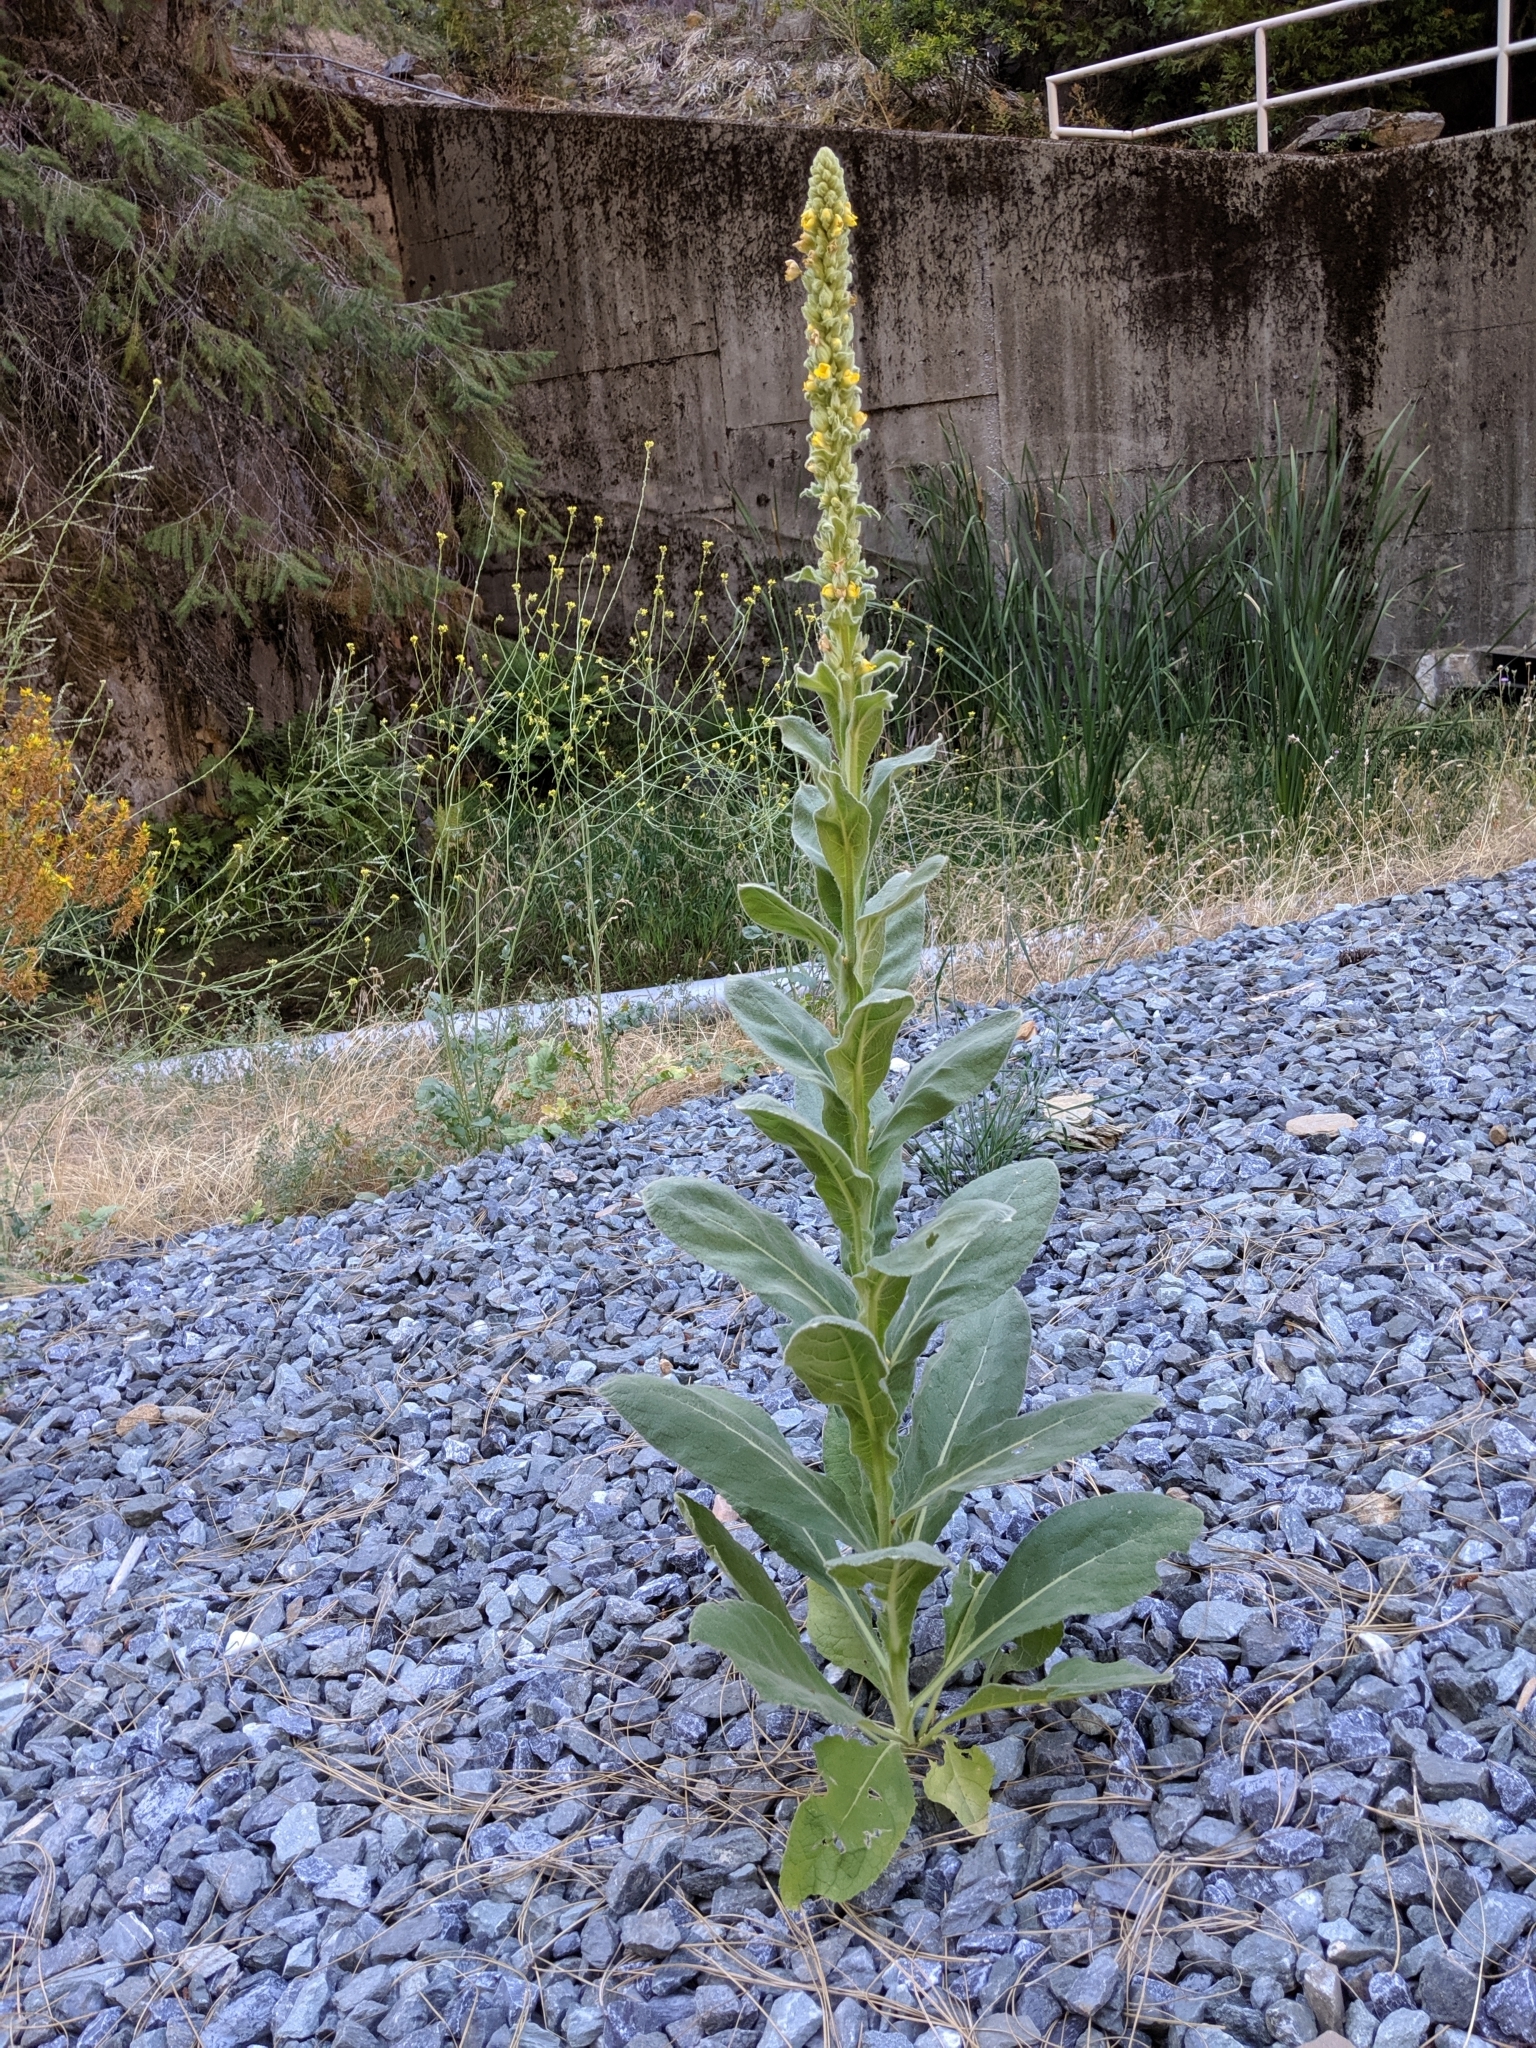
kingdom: Plantae
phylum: Tracheophyta
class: Magnoliopsida
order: Lamiales
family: Scrophulariaceae
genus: Verbascum
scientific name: Verbascum thapsus
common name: Common mullein
